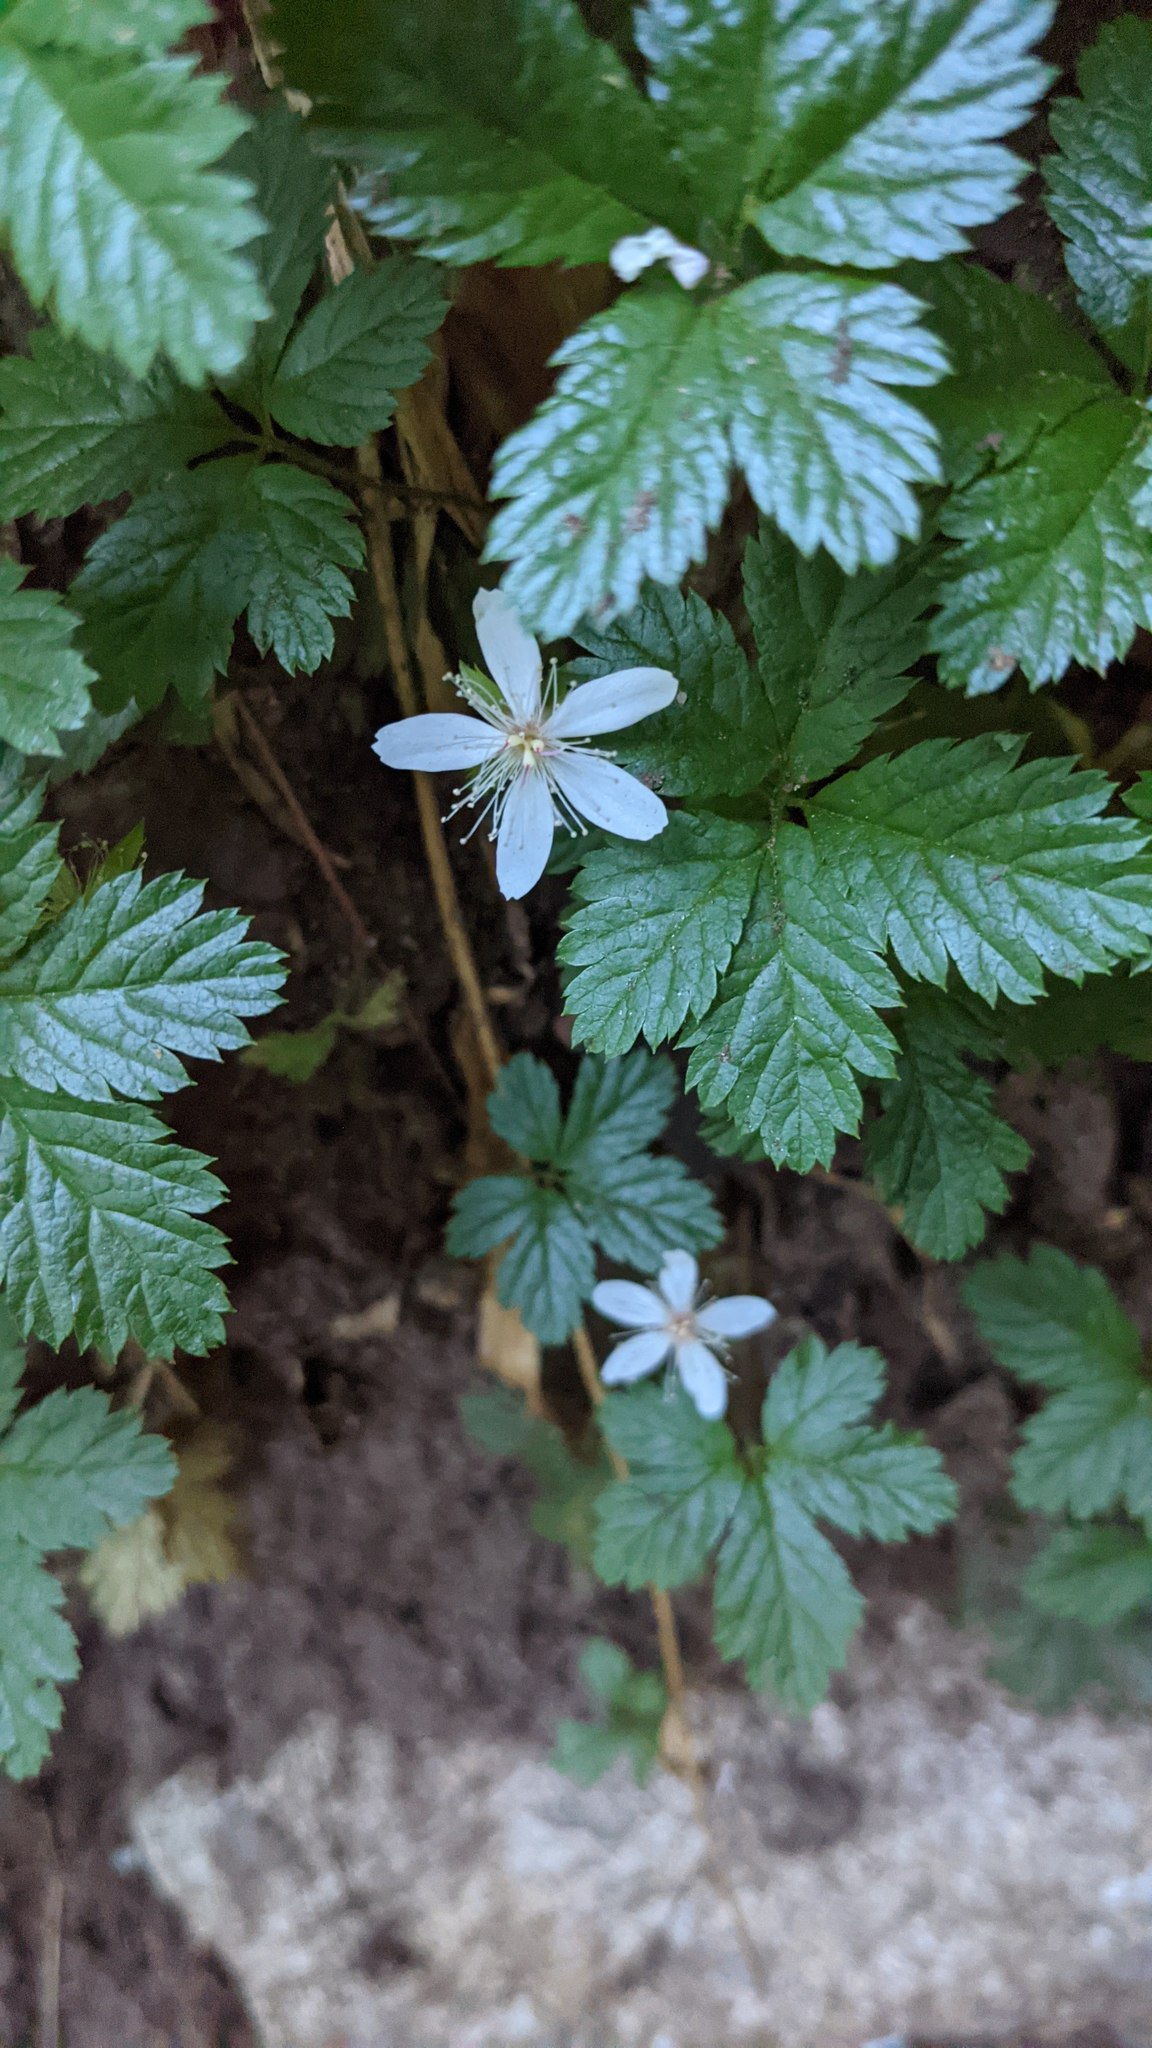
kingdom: Plantae
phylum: Tracheophyta
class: Magnoliopsida
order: Rosales
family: Rosaceae
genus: Rubus
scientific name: Rubus pedatus
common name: Creeping raspberry
